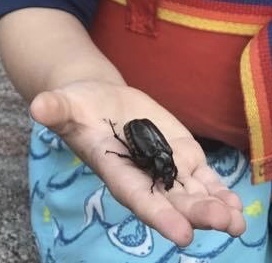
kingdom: Animalia
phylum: Arthropoda
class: Insecta
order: Coleoptera
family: Scarabaeidae
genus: Osmoderma
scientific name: Osmoderma eremicola
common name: Hermit flower beetle
